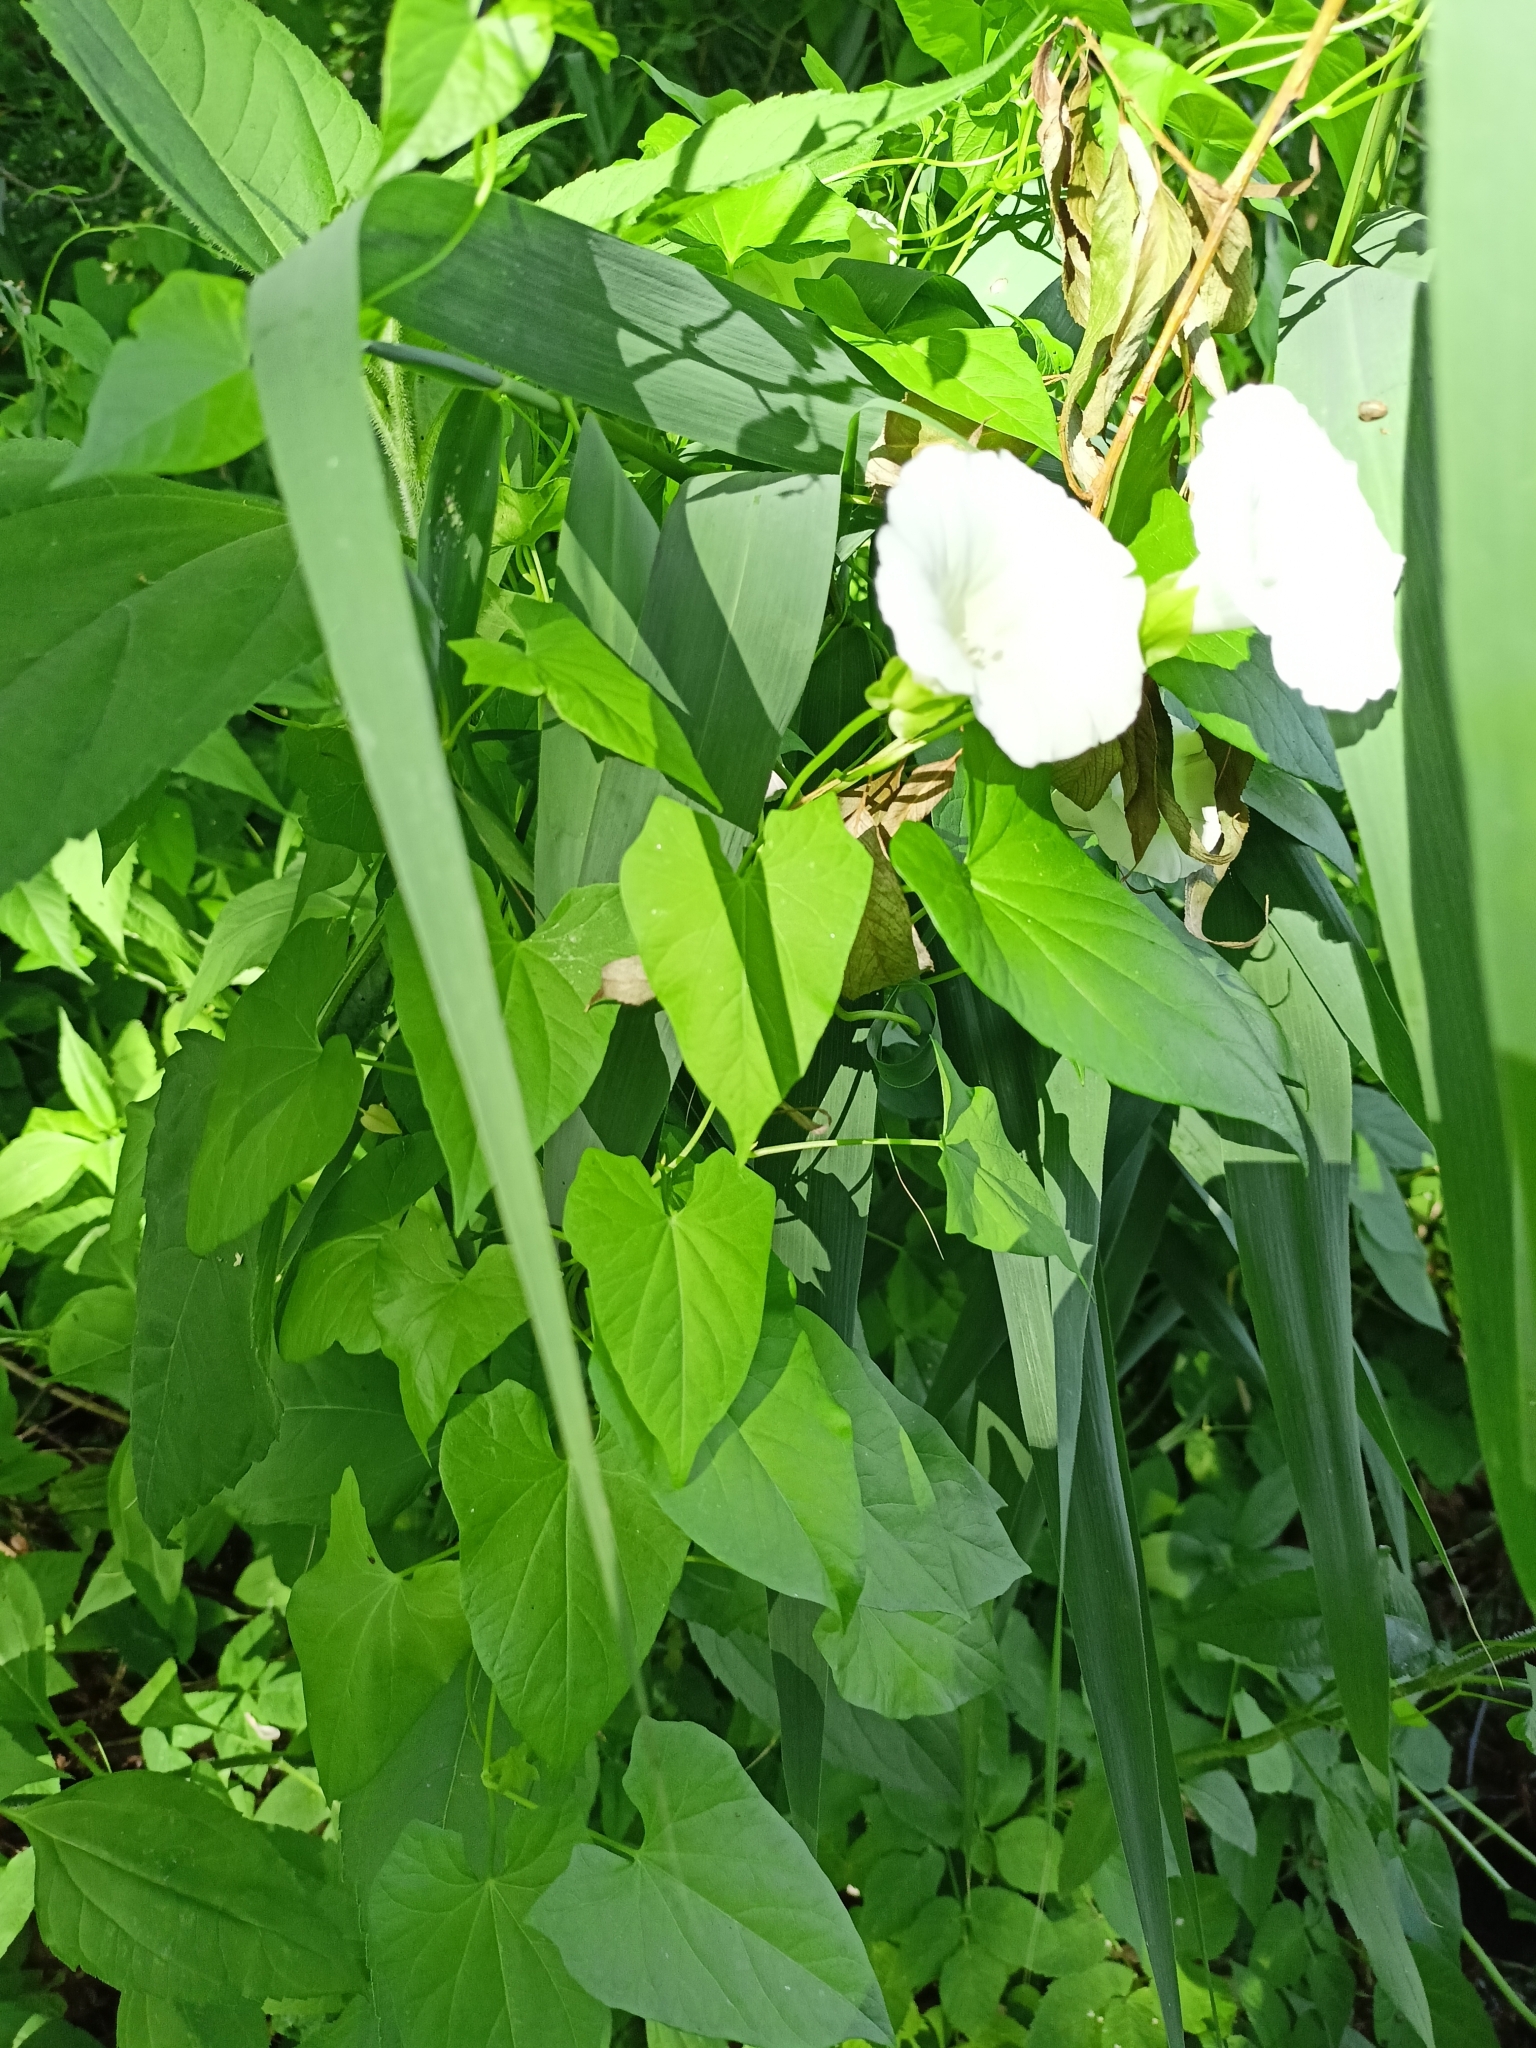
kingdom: Plantae
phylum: Tracheophyta
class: Magnoliopsida
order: Solanales
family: Convolvulaceae
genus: Calystegia
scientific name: Calystegia sepium
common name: Hedge bindweed
